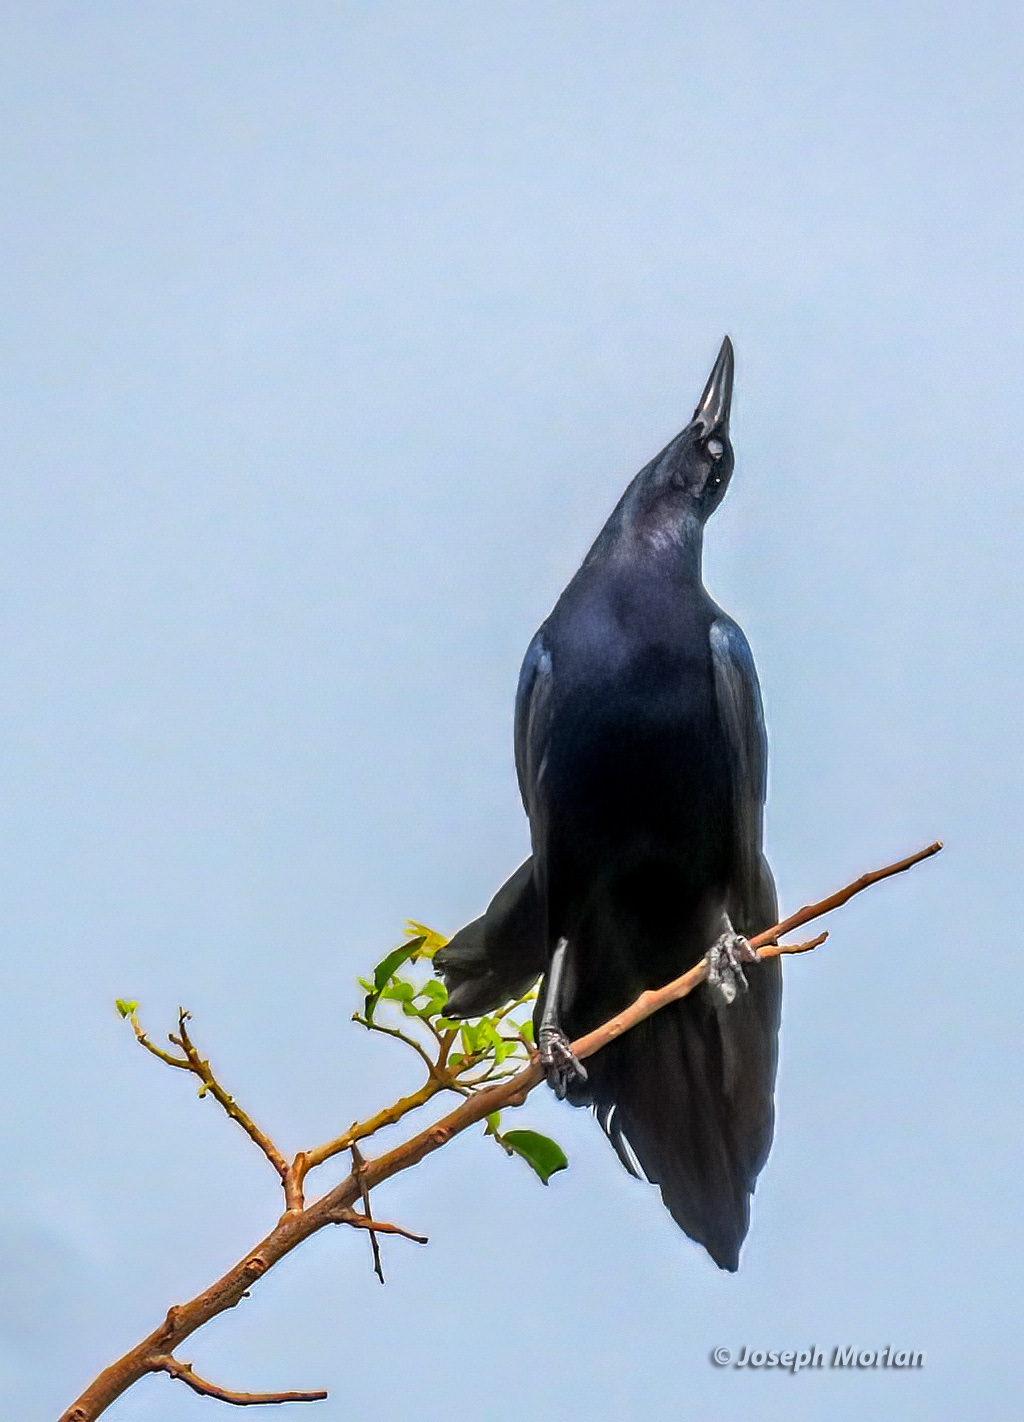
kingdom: Animalia
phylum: Chordata
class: Aves
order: Passeriformes
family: Icteridae
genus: Quiscalus
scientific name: Quiscalus mexicanus
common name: Great-tailed grackle
